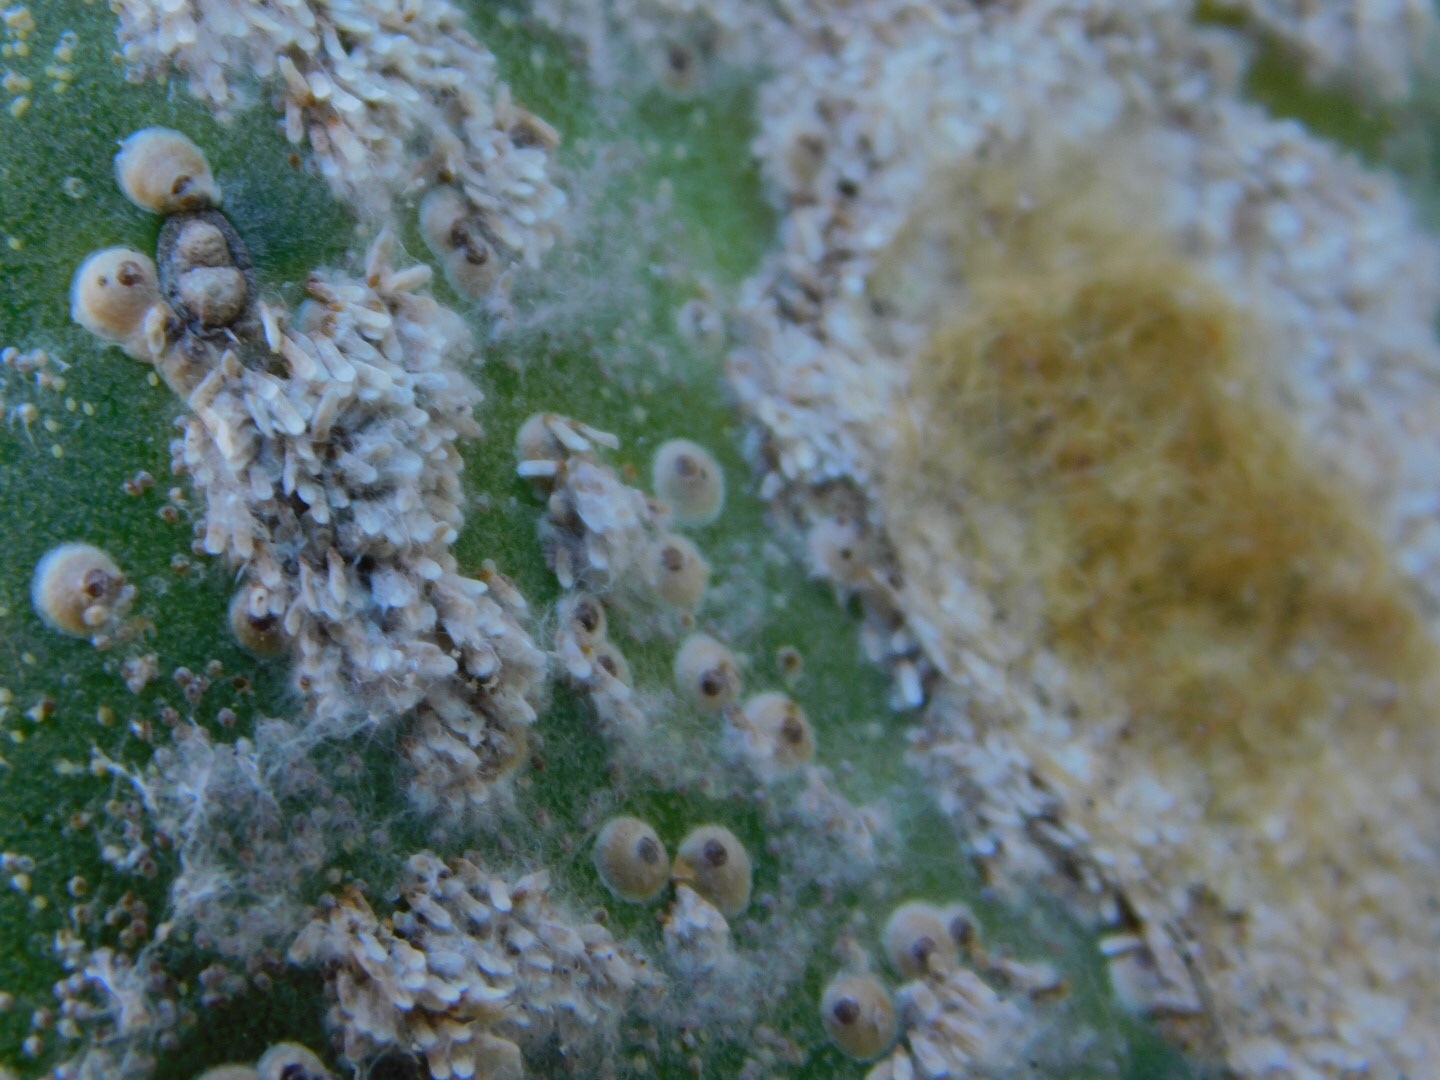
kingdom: Animalia
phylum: Arthropoda
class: Insecta
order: Hemiptera
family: Diaspididae
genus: Diaspis
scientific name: Diaspis echinocacti
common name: Cactus scale
